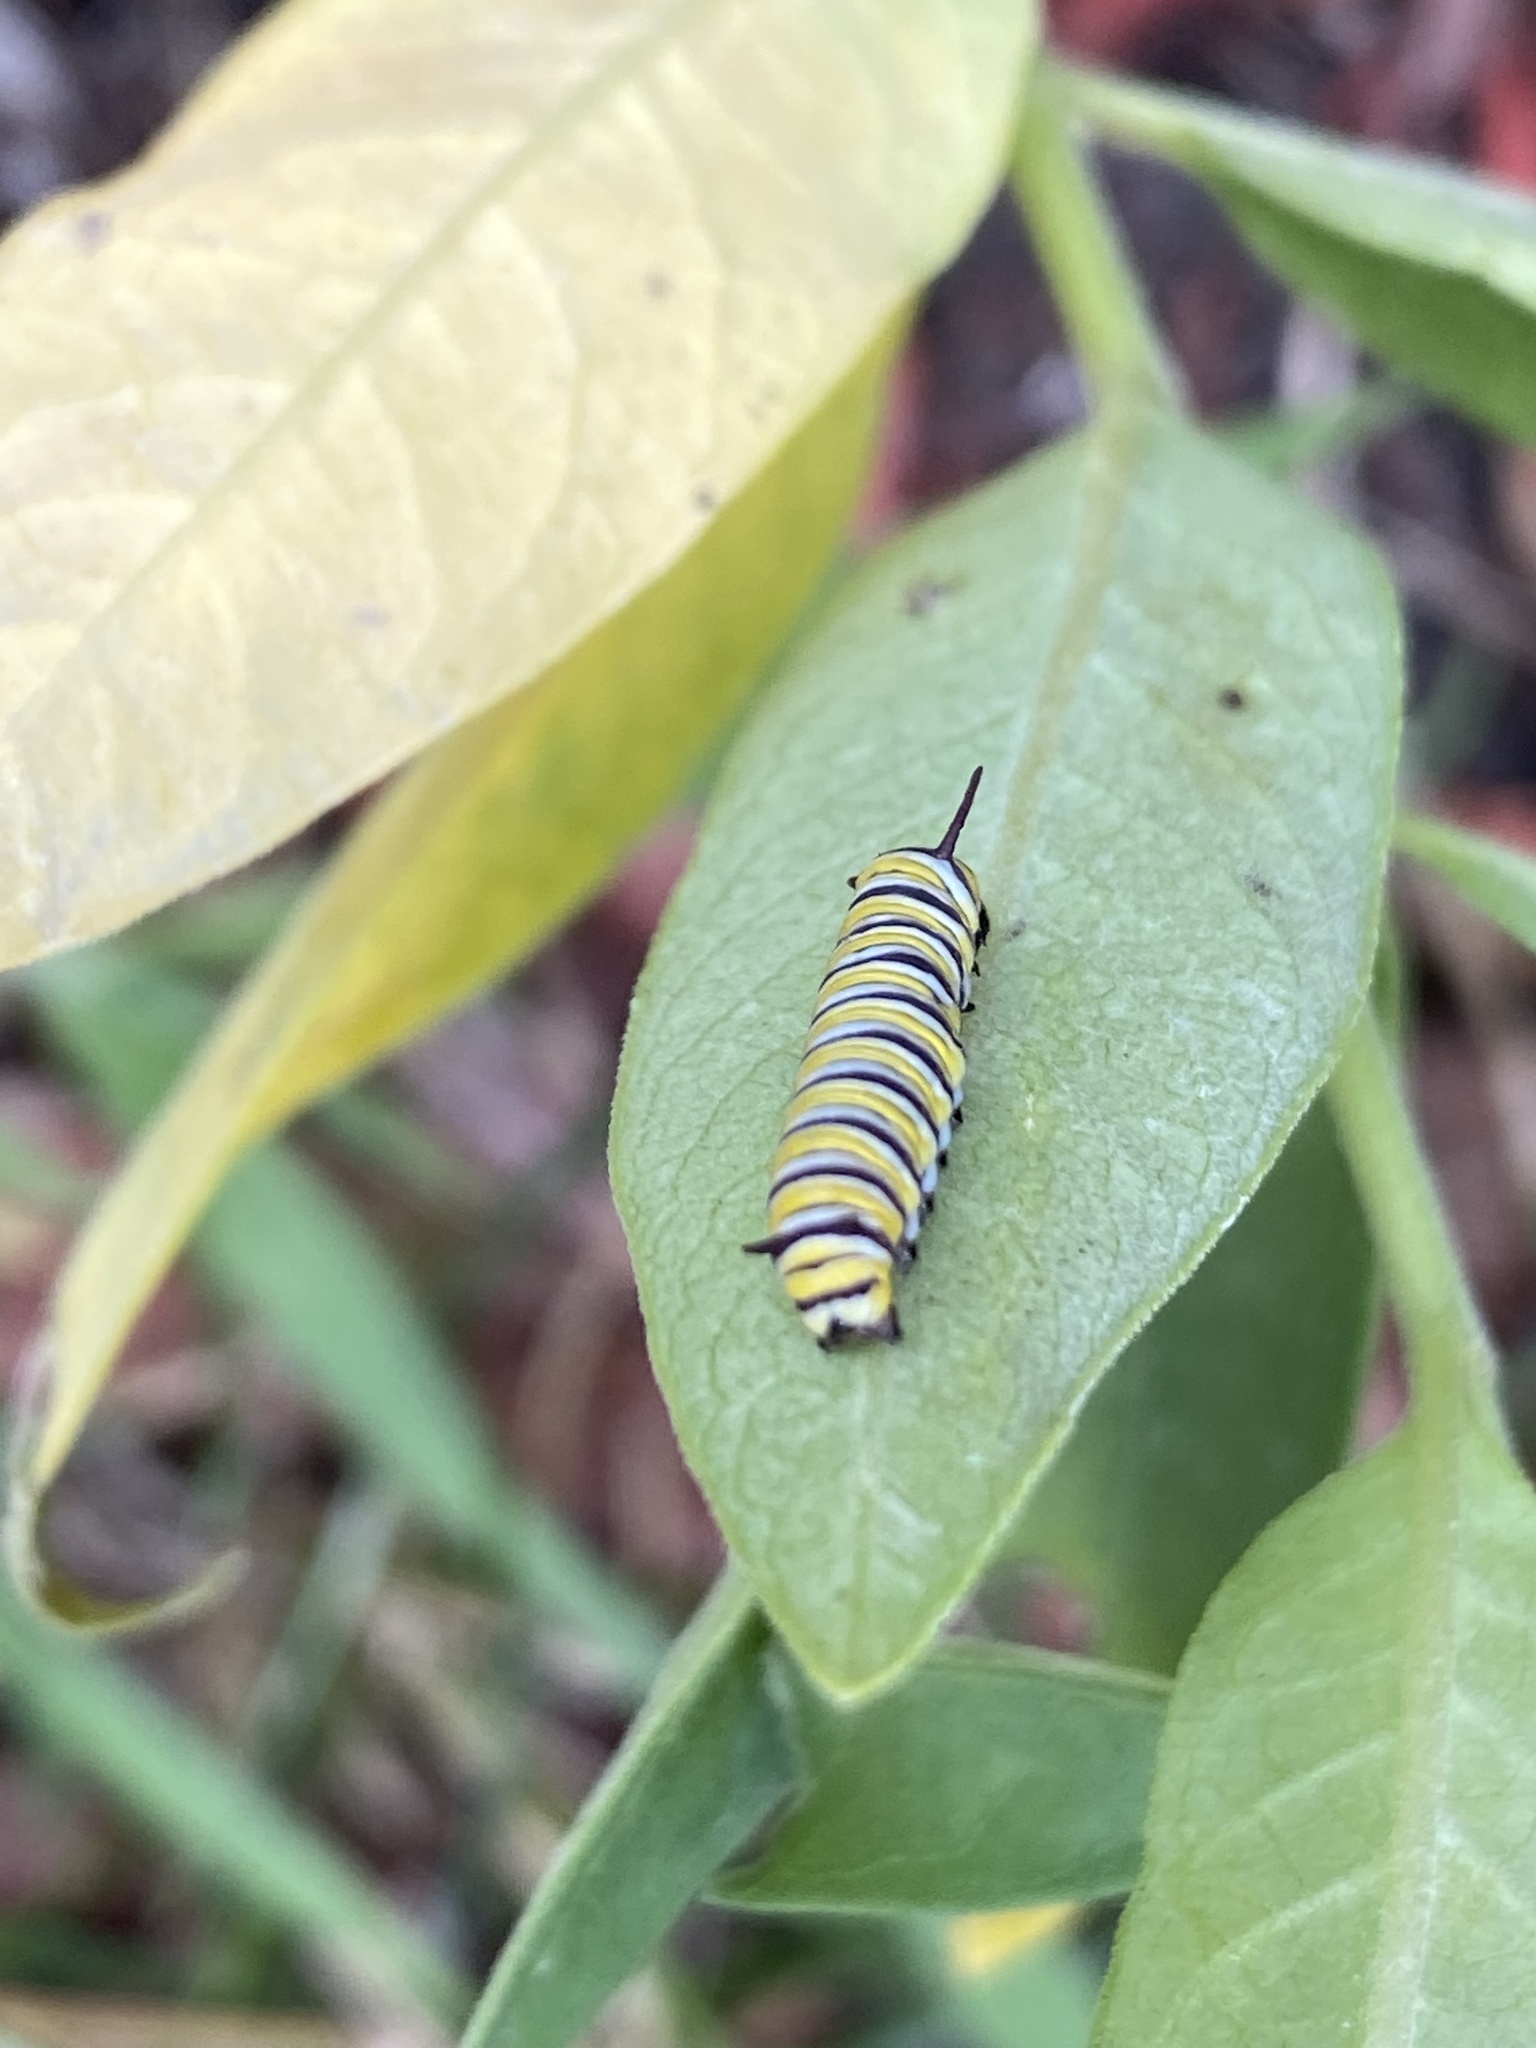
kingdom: Animalia
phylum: Arthropoda
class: Insecta
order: Lepidoptera
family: Nymphalidae
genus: Danaus
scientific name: Danaus plexippus
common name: Monarch
